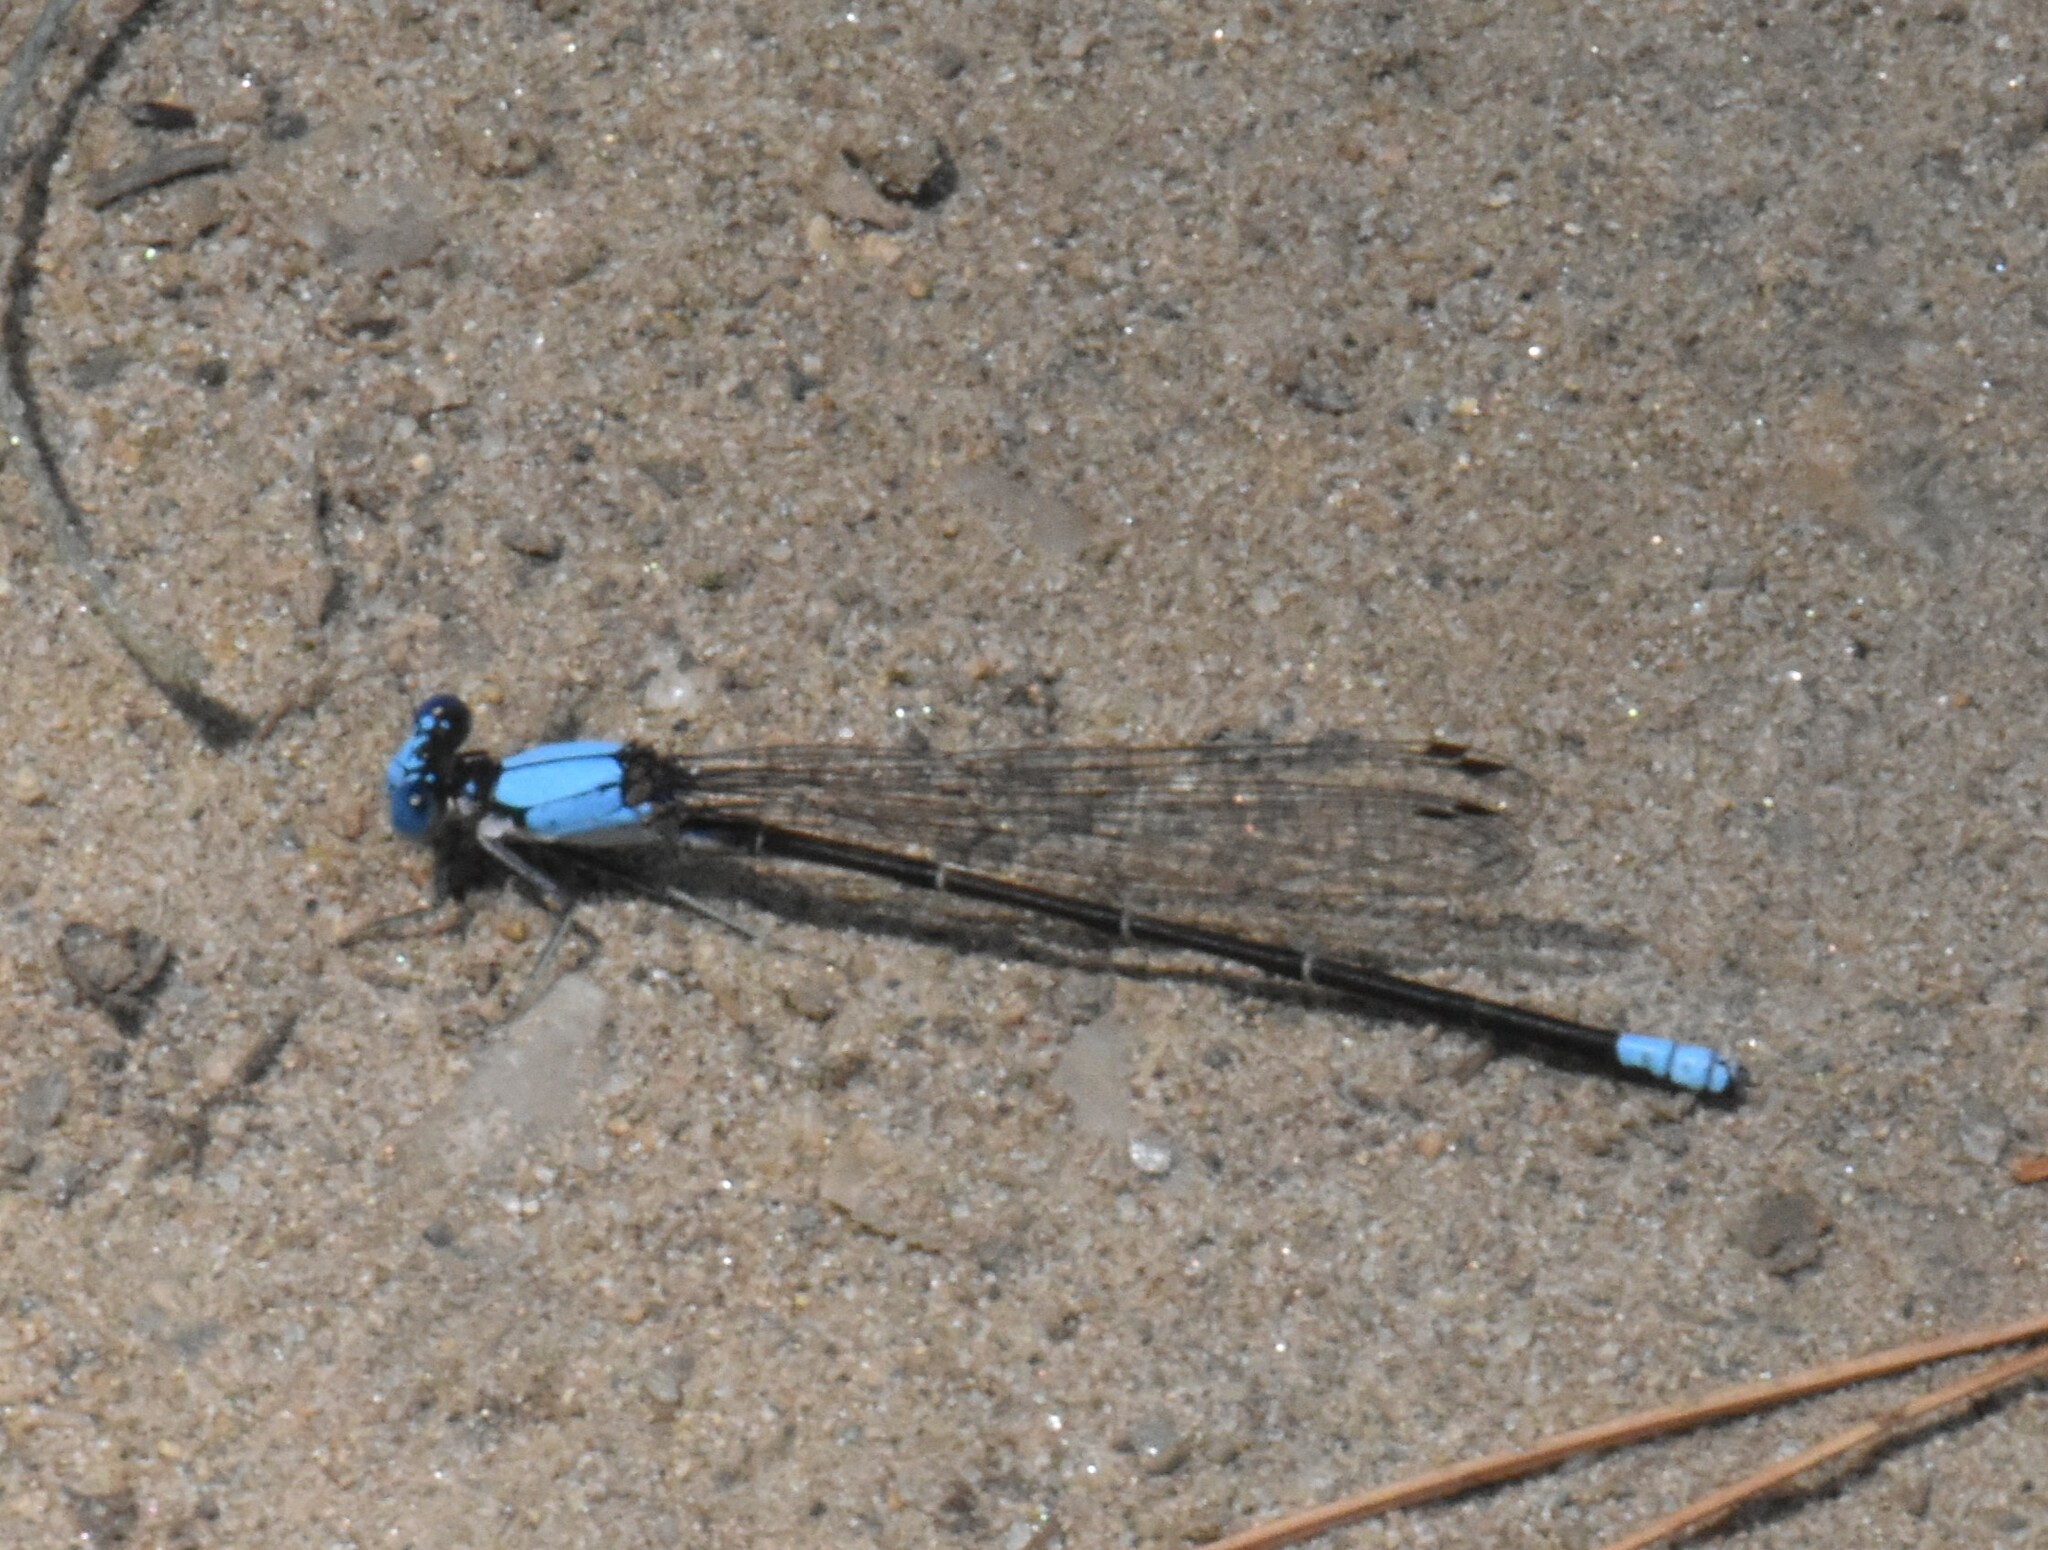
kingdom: Animalia
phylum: Arthropoda
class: Insecta
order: Odonata
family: Coenagrionidae
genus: Argia
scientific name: Argia apicalis
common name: Blue-fronted dancer
